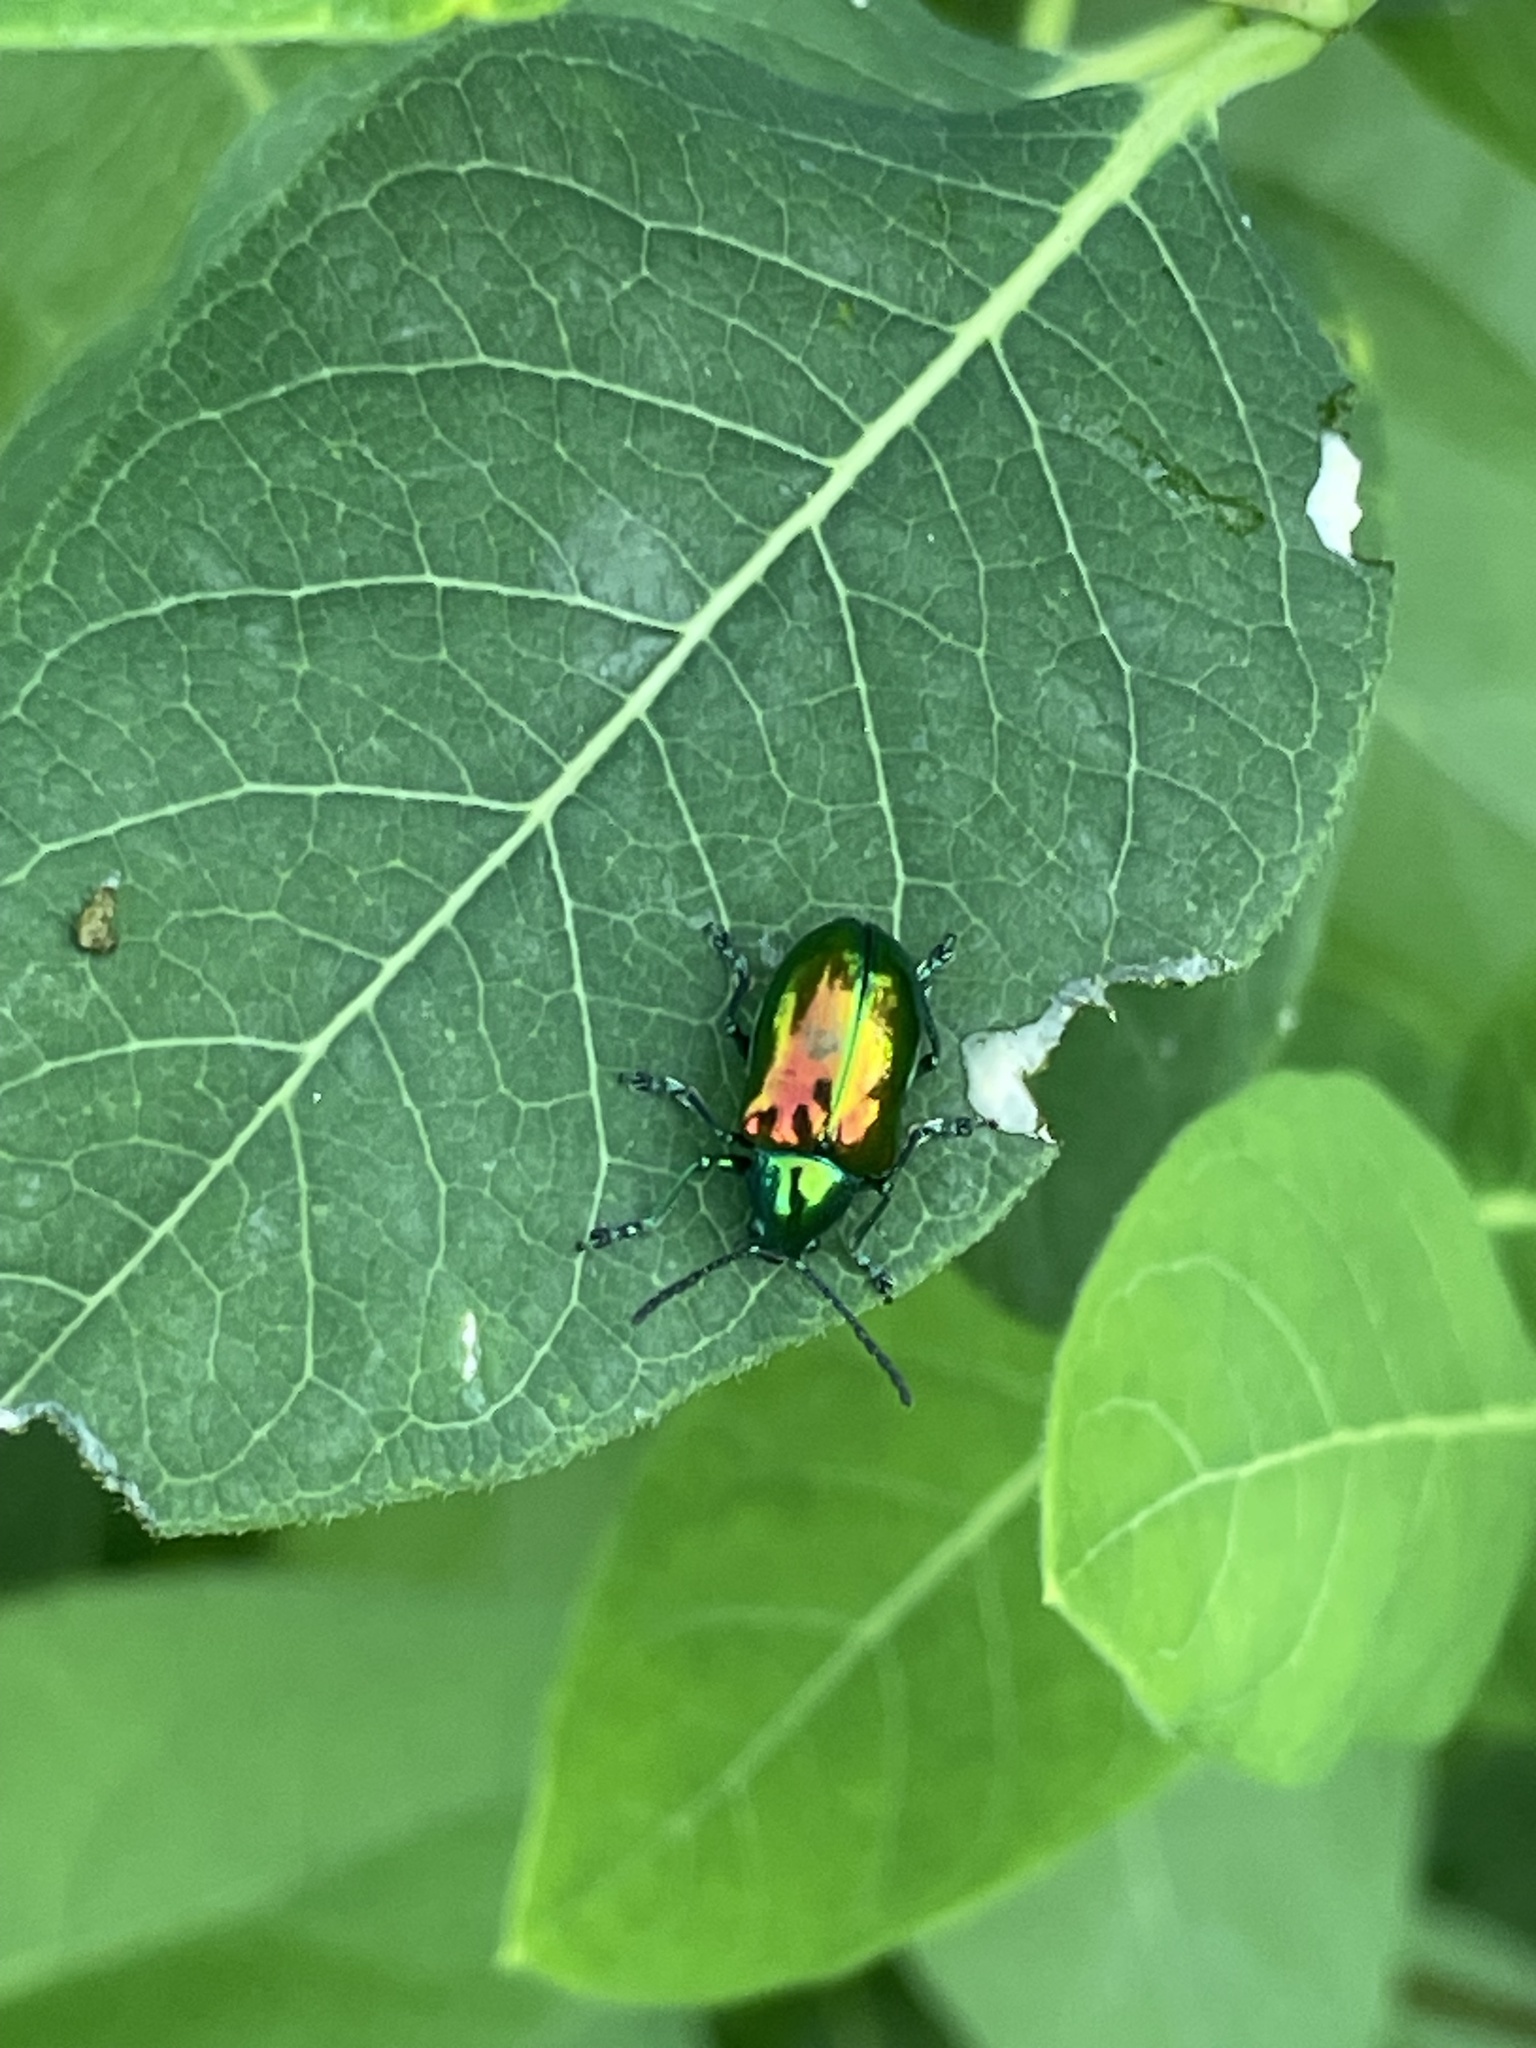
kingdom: Animalia
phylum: Arthropoda
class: Insecta
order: Coleoptera
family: Chrysomelidae
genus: Chrysochus
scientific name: Chrysochus auratus
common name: Dogbane leaf beetle
